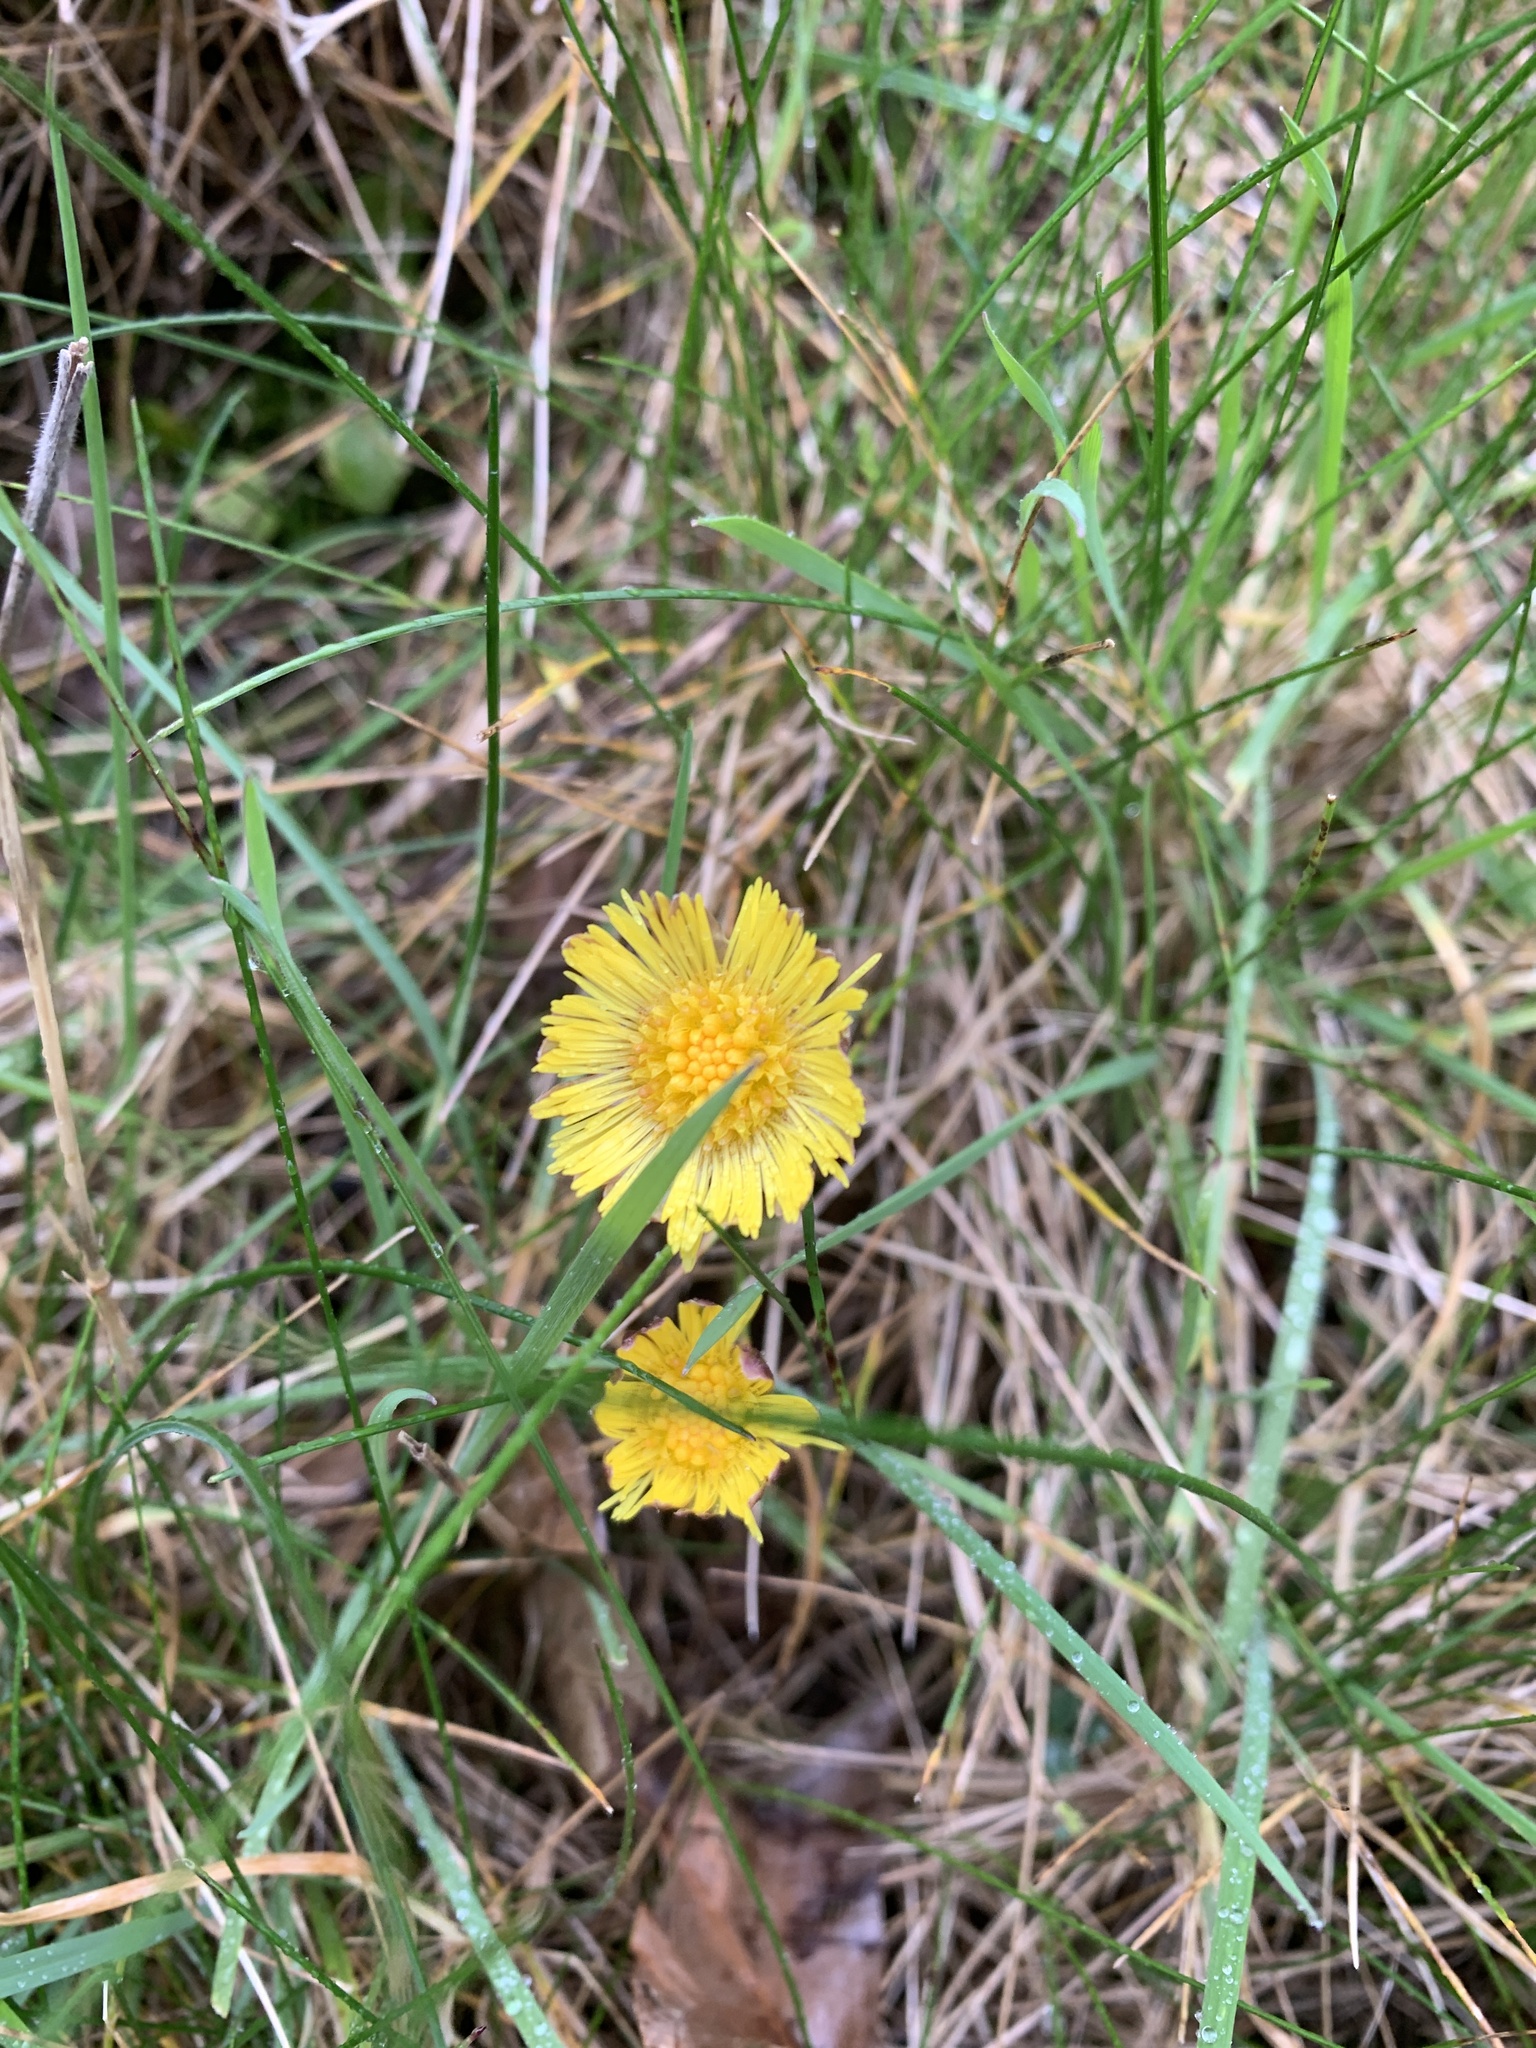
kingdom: Plantae
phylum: Tracheophyta
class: Magnoliopsida
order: Asterales
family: Asteraceae
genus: Tussilago
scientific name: Tussilago farfara
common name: Coltsfoot
